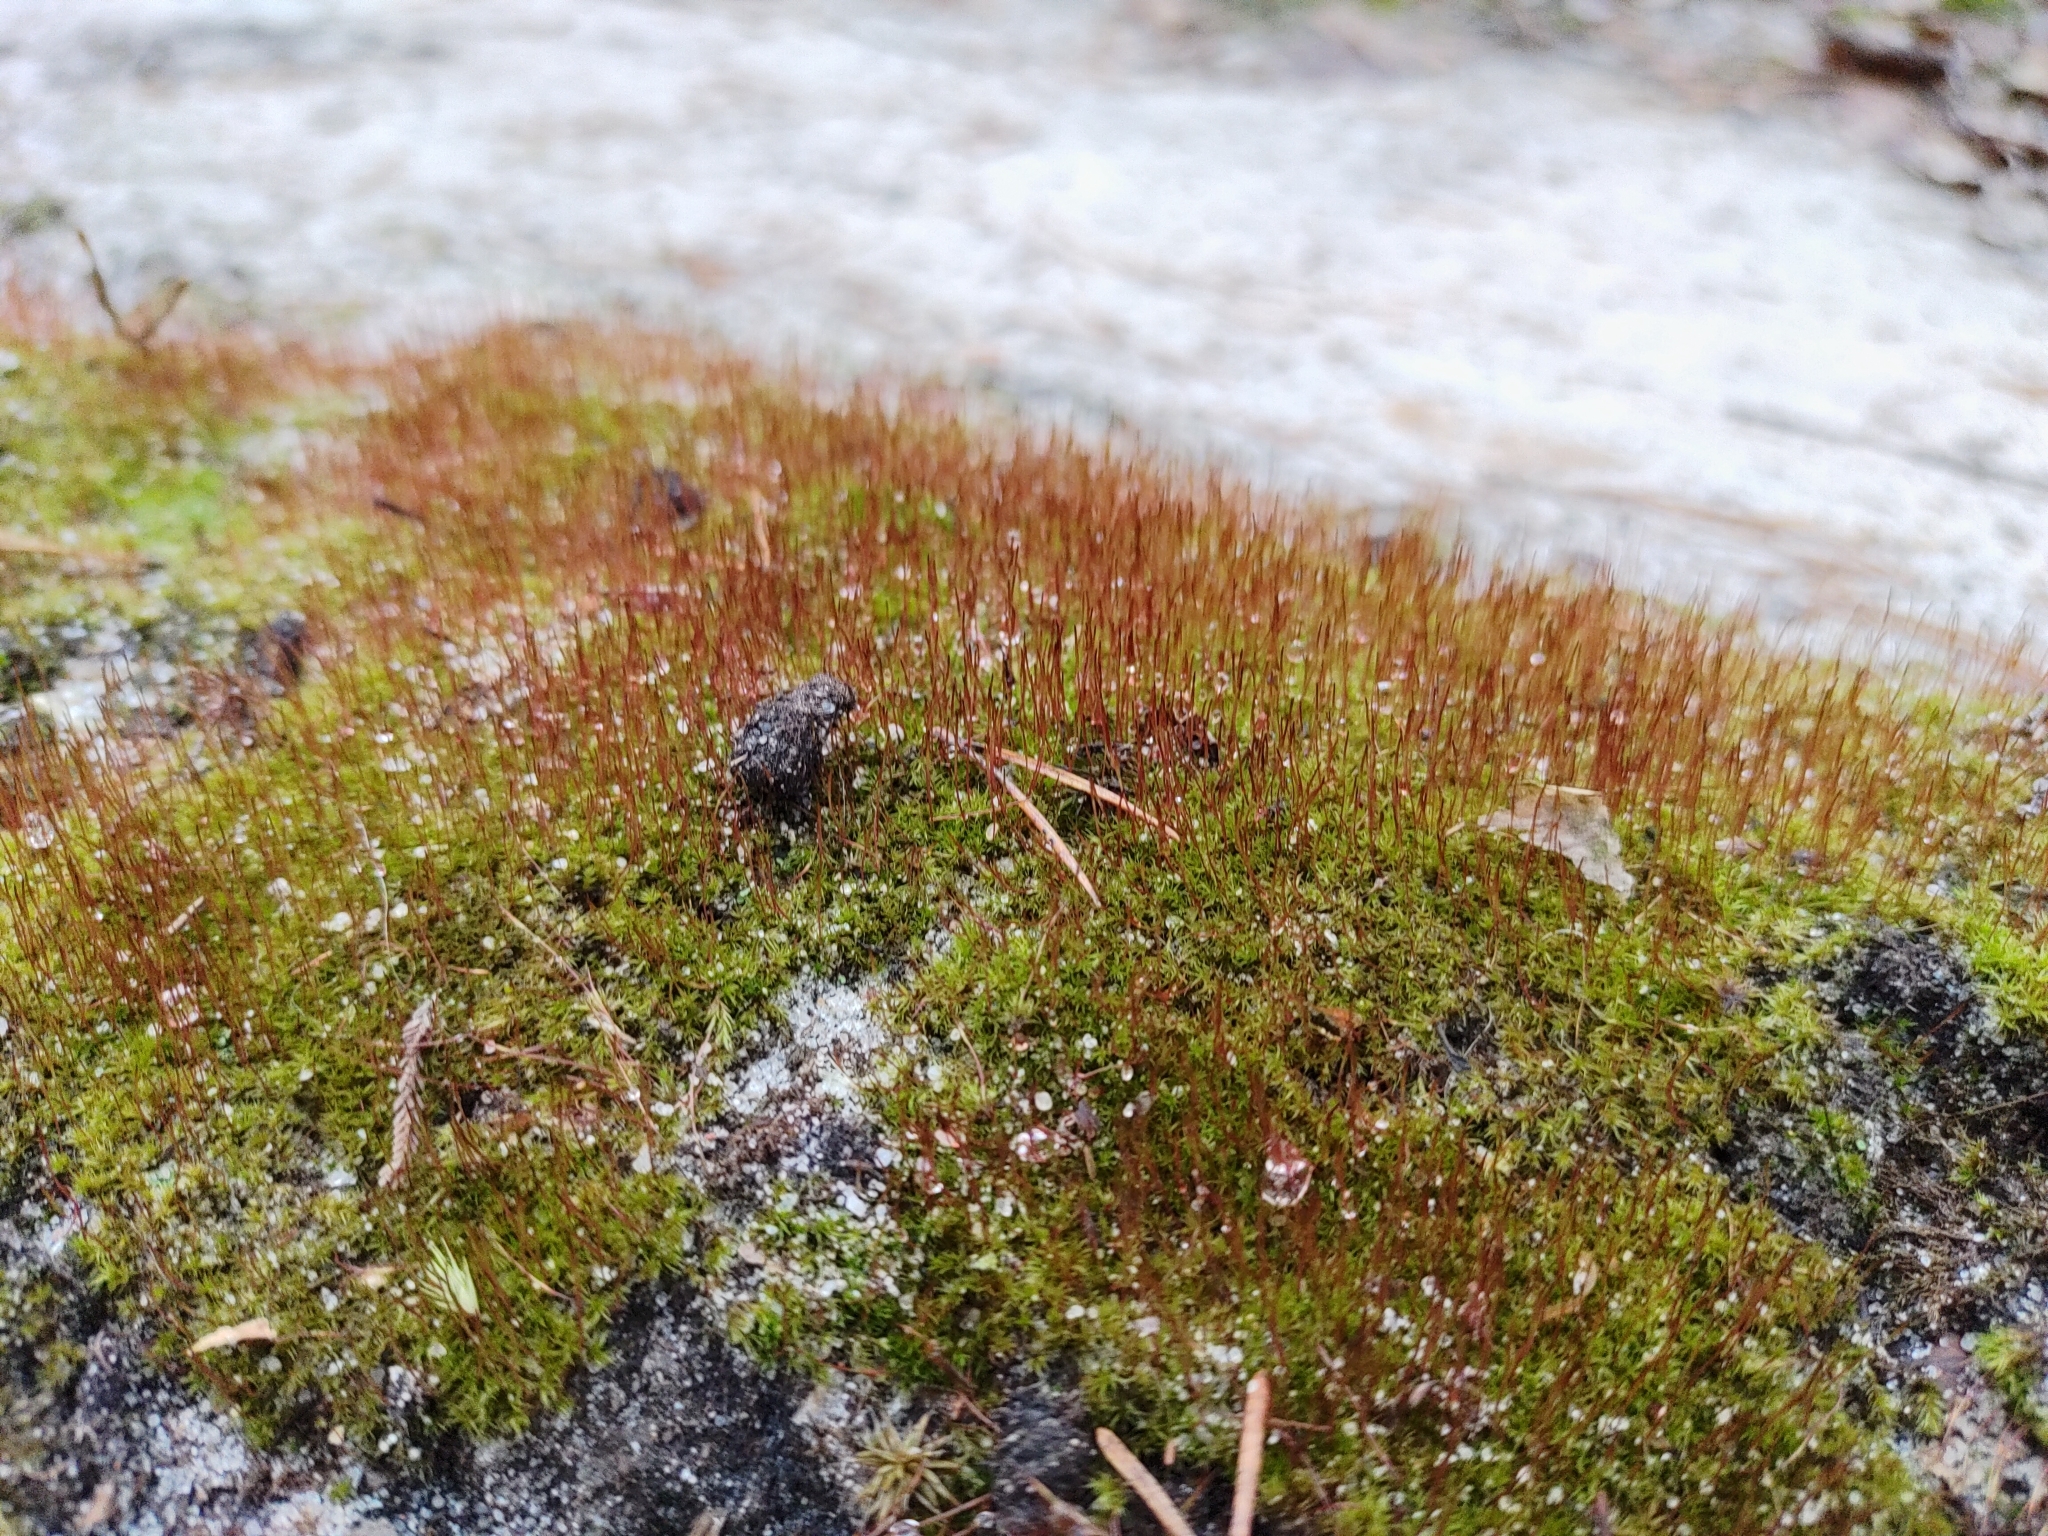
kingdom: Plantae
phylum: Bryophyta
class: Bryopsida
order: Dicranales
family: Ditrichaceae
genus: Ceratodon
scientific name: Ceratodon purpureus
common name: Redshank
